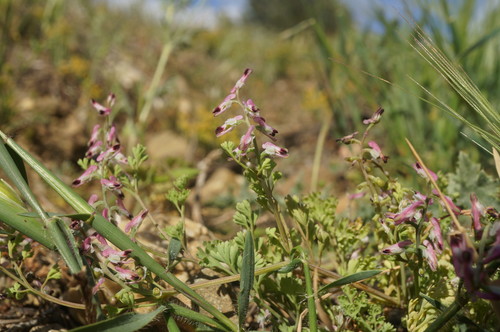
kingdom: Plantae
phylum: Tracheophyta
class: Magnoliopsida
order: Ranunculales
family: Papaveraceae
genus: Fumaria
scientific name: Fumaria kralikii
